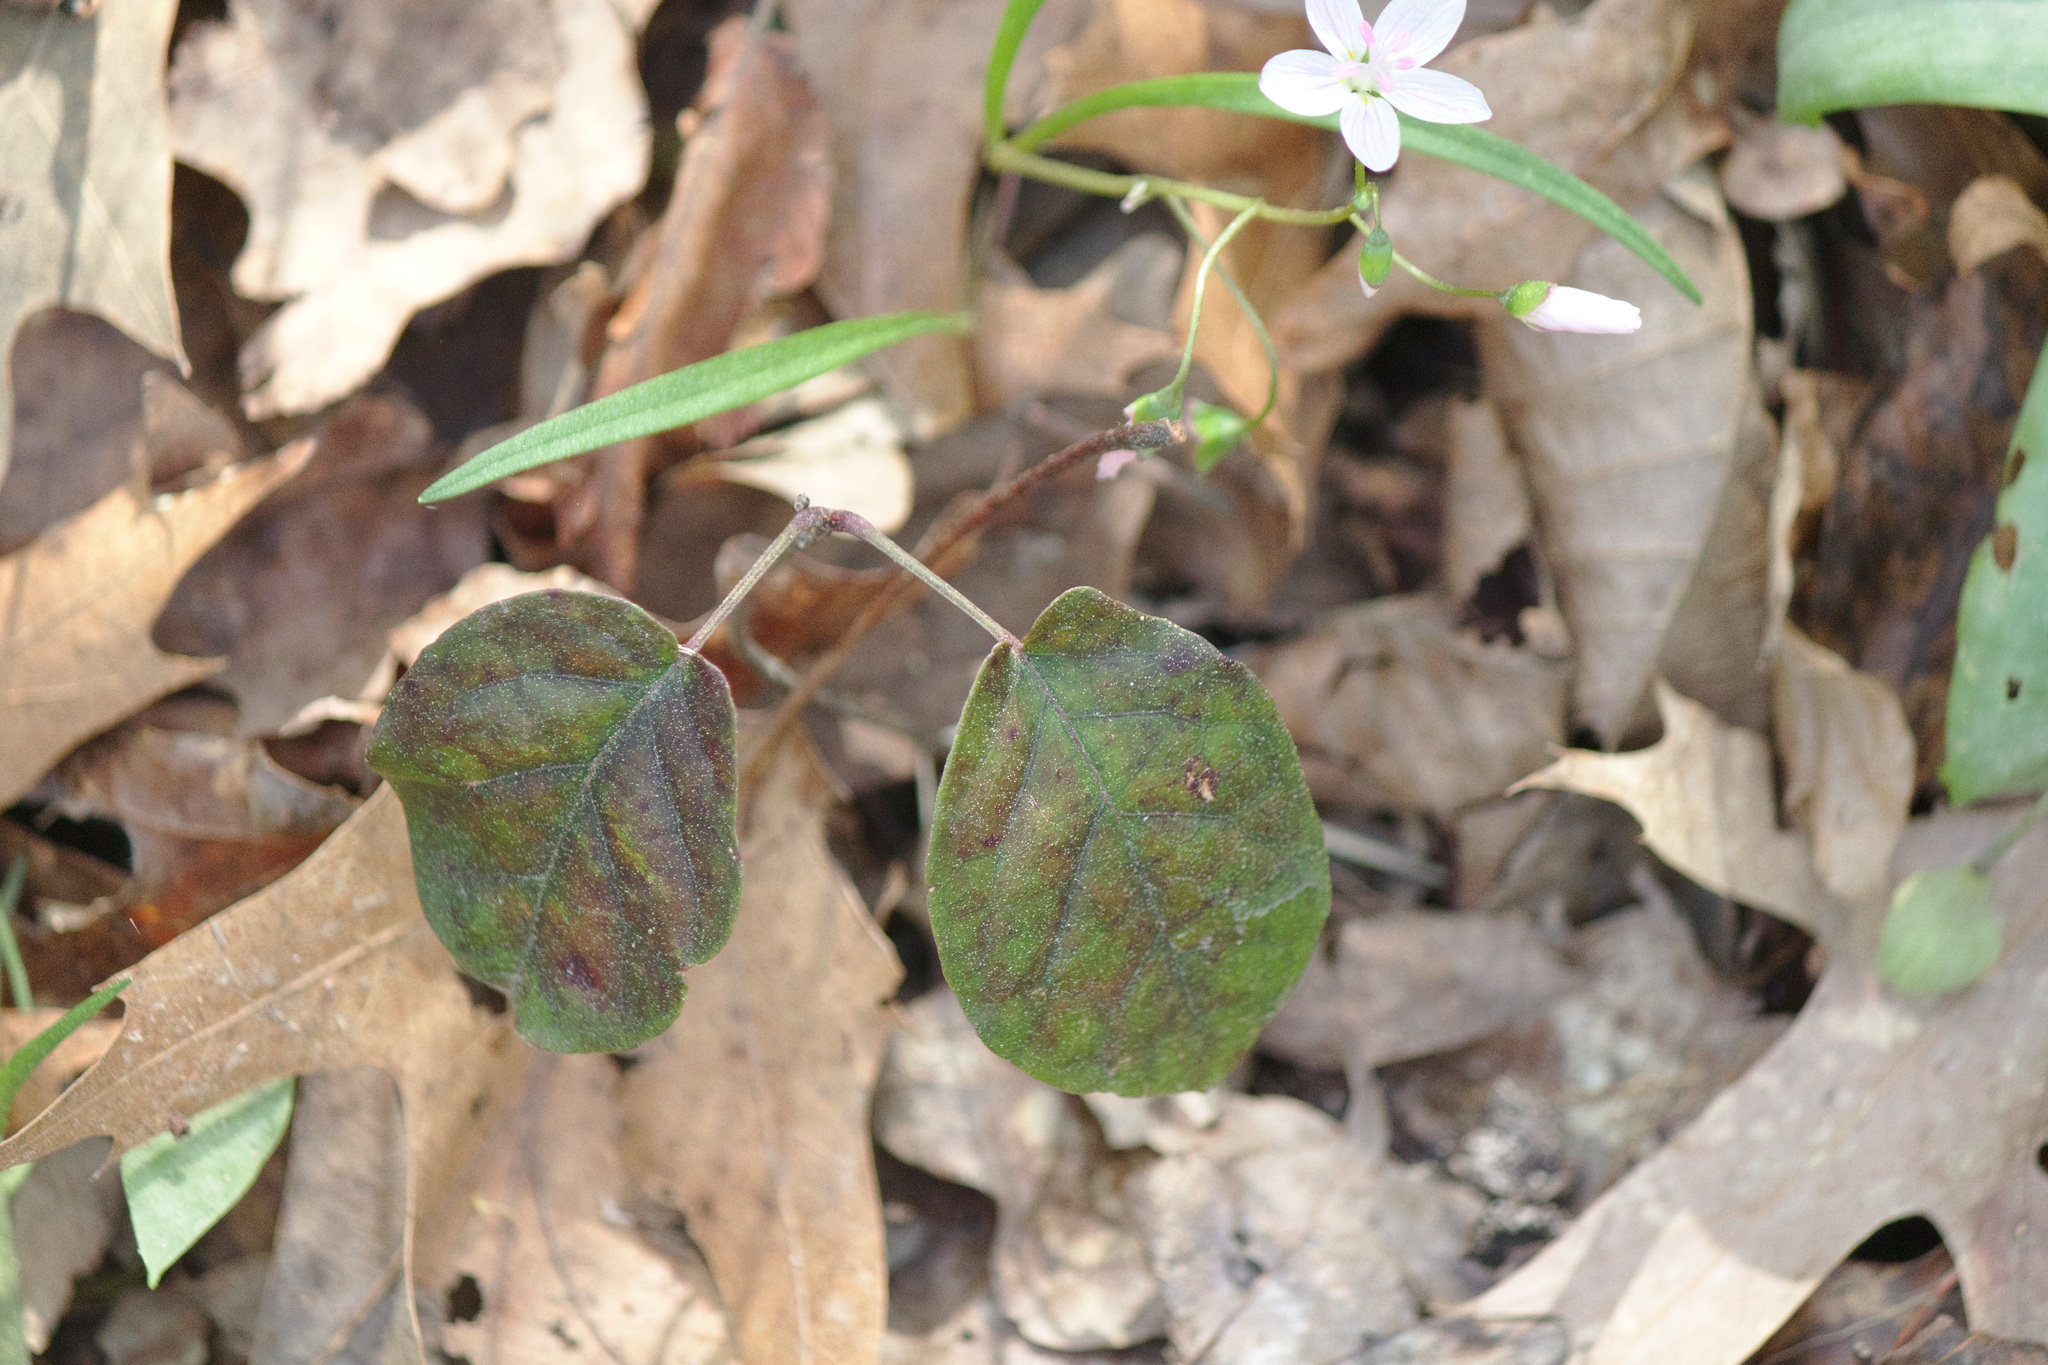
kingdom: Plantae
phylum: Tracheophyta
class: Magnoliopsida
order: Lamiales
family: Bignoniaceae
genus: Bignonia
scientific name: Bignonia capreolata
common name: Crossvine
